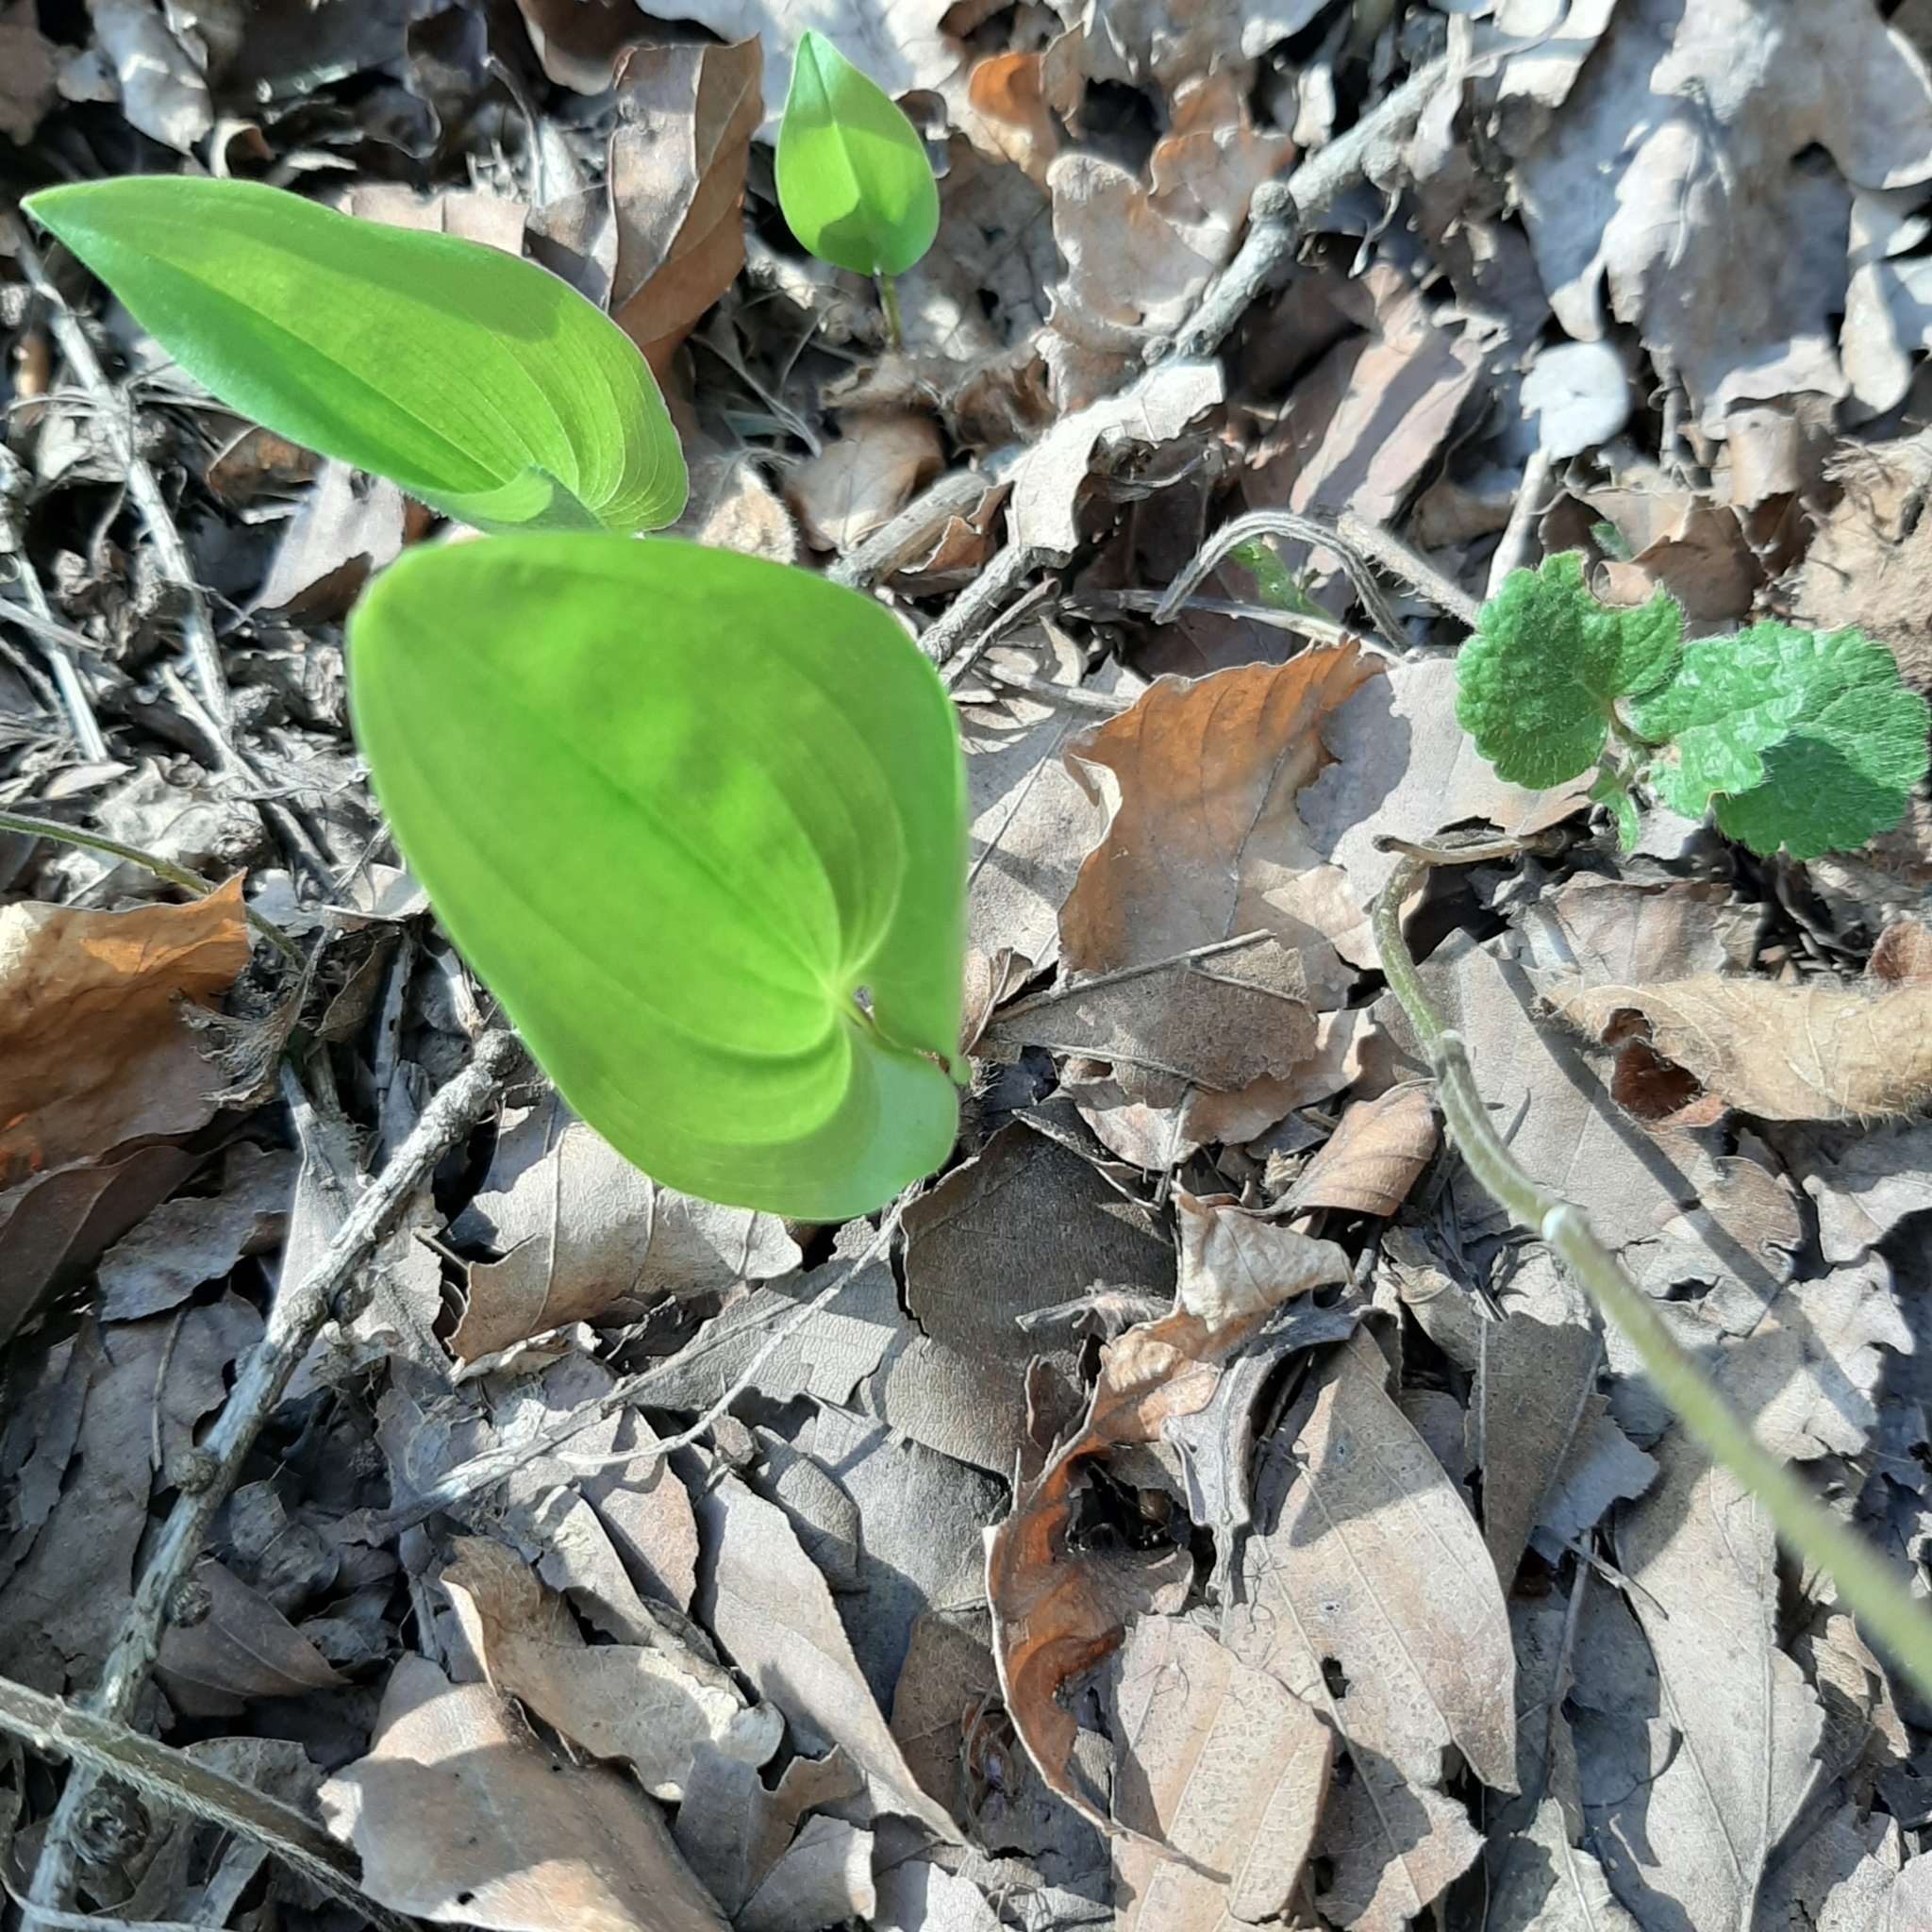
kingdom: Plantae
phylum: Tracheophyta
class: Liliopsida
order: Asparagales
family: Asparagaceae
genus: Maianthemum
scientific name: Maianthemum bifolium
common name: May lily
